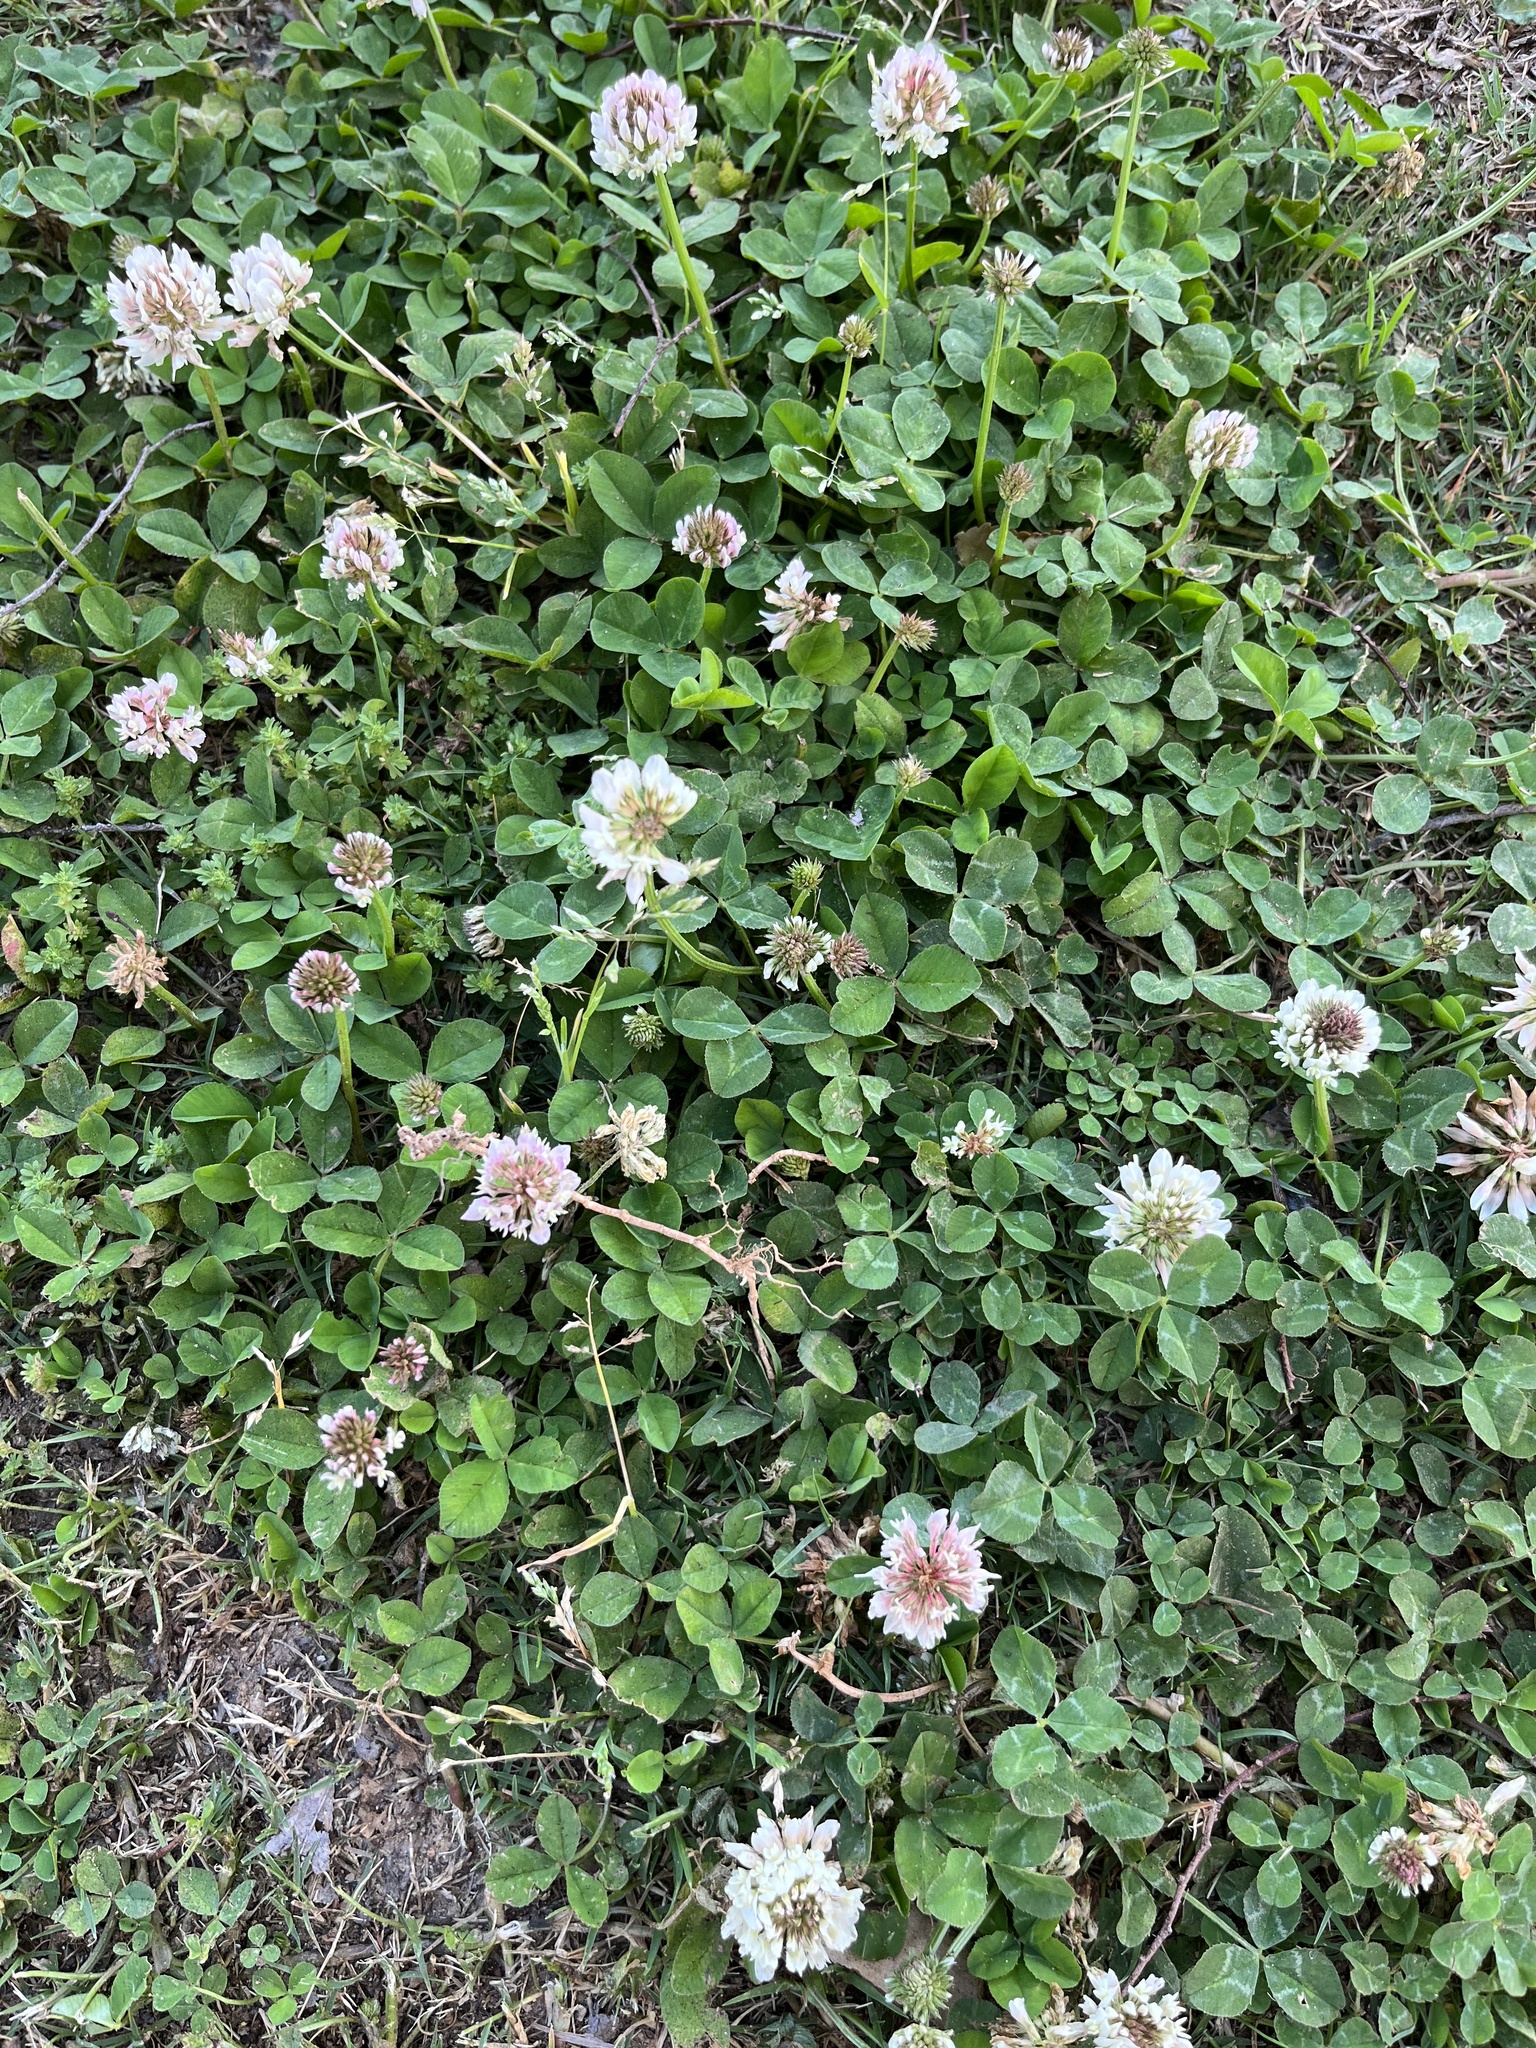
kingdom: Plantae
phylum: Tracheophyta
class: Magnoliopsida
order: Fabales
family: Fabaceae
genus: Trifolium
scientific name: Trifolium repens
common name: White clover
